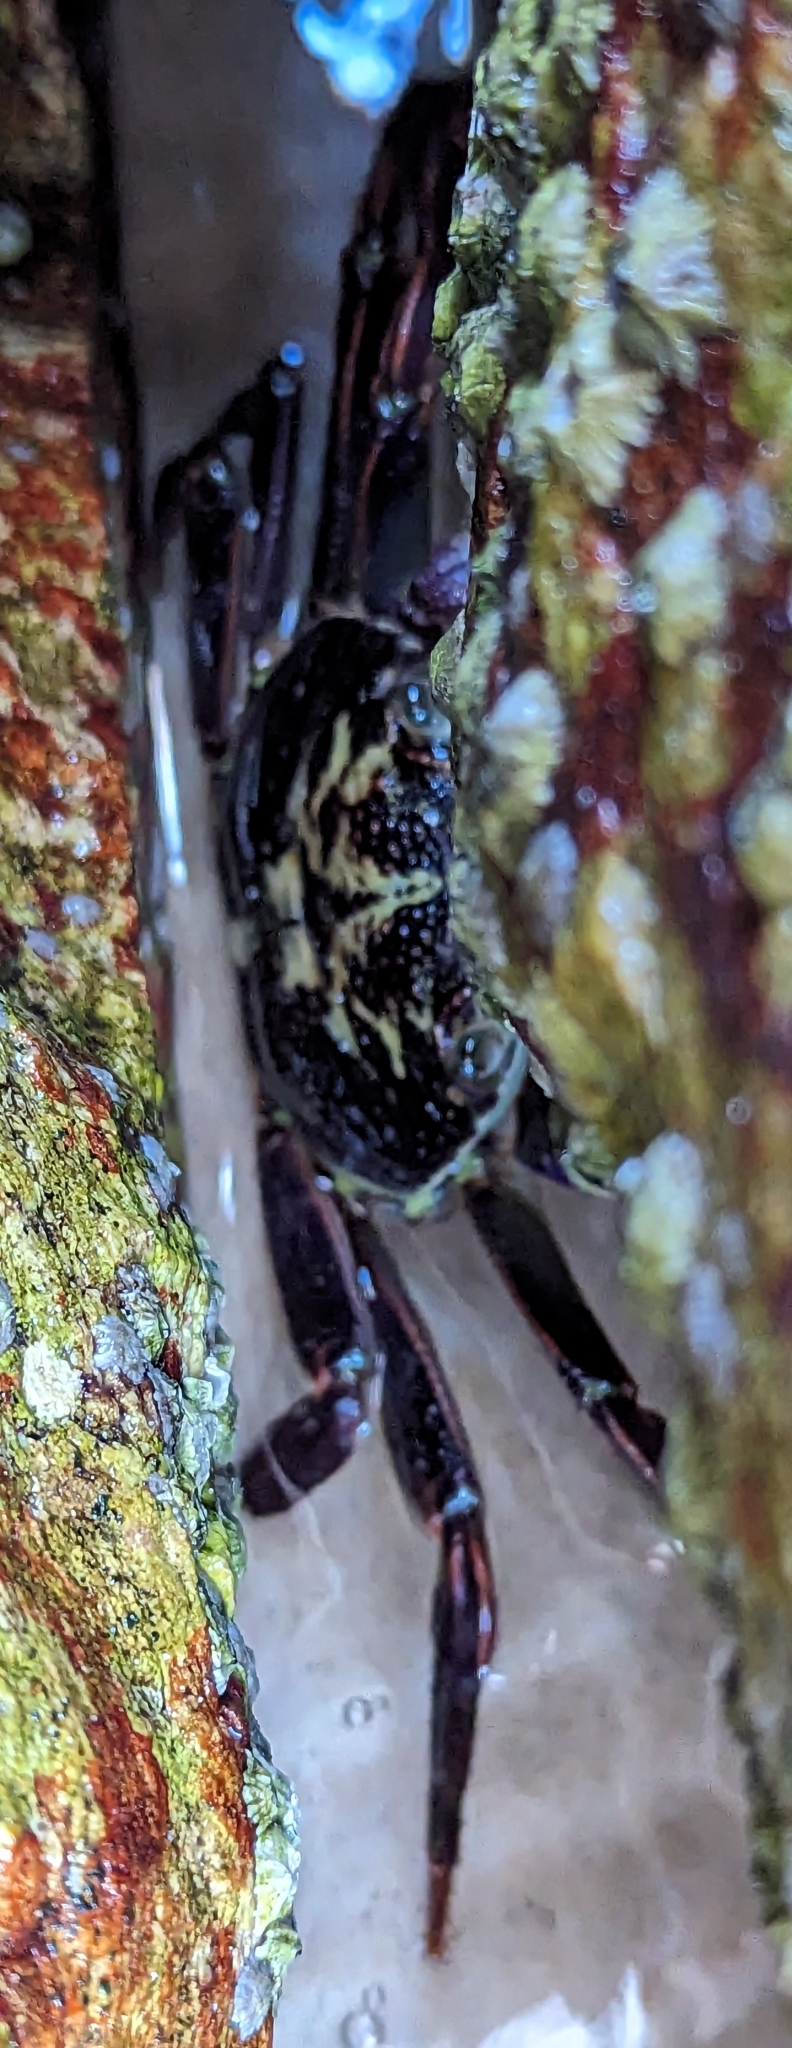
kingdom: Animalia
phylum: Arthropoda
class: Malacostraca
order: Decapoda
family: Grapsidae
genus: Leptograpsus
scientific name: Leptograpsus variegatus
